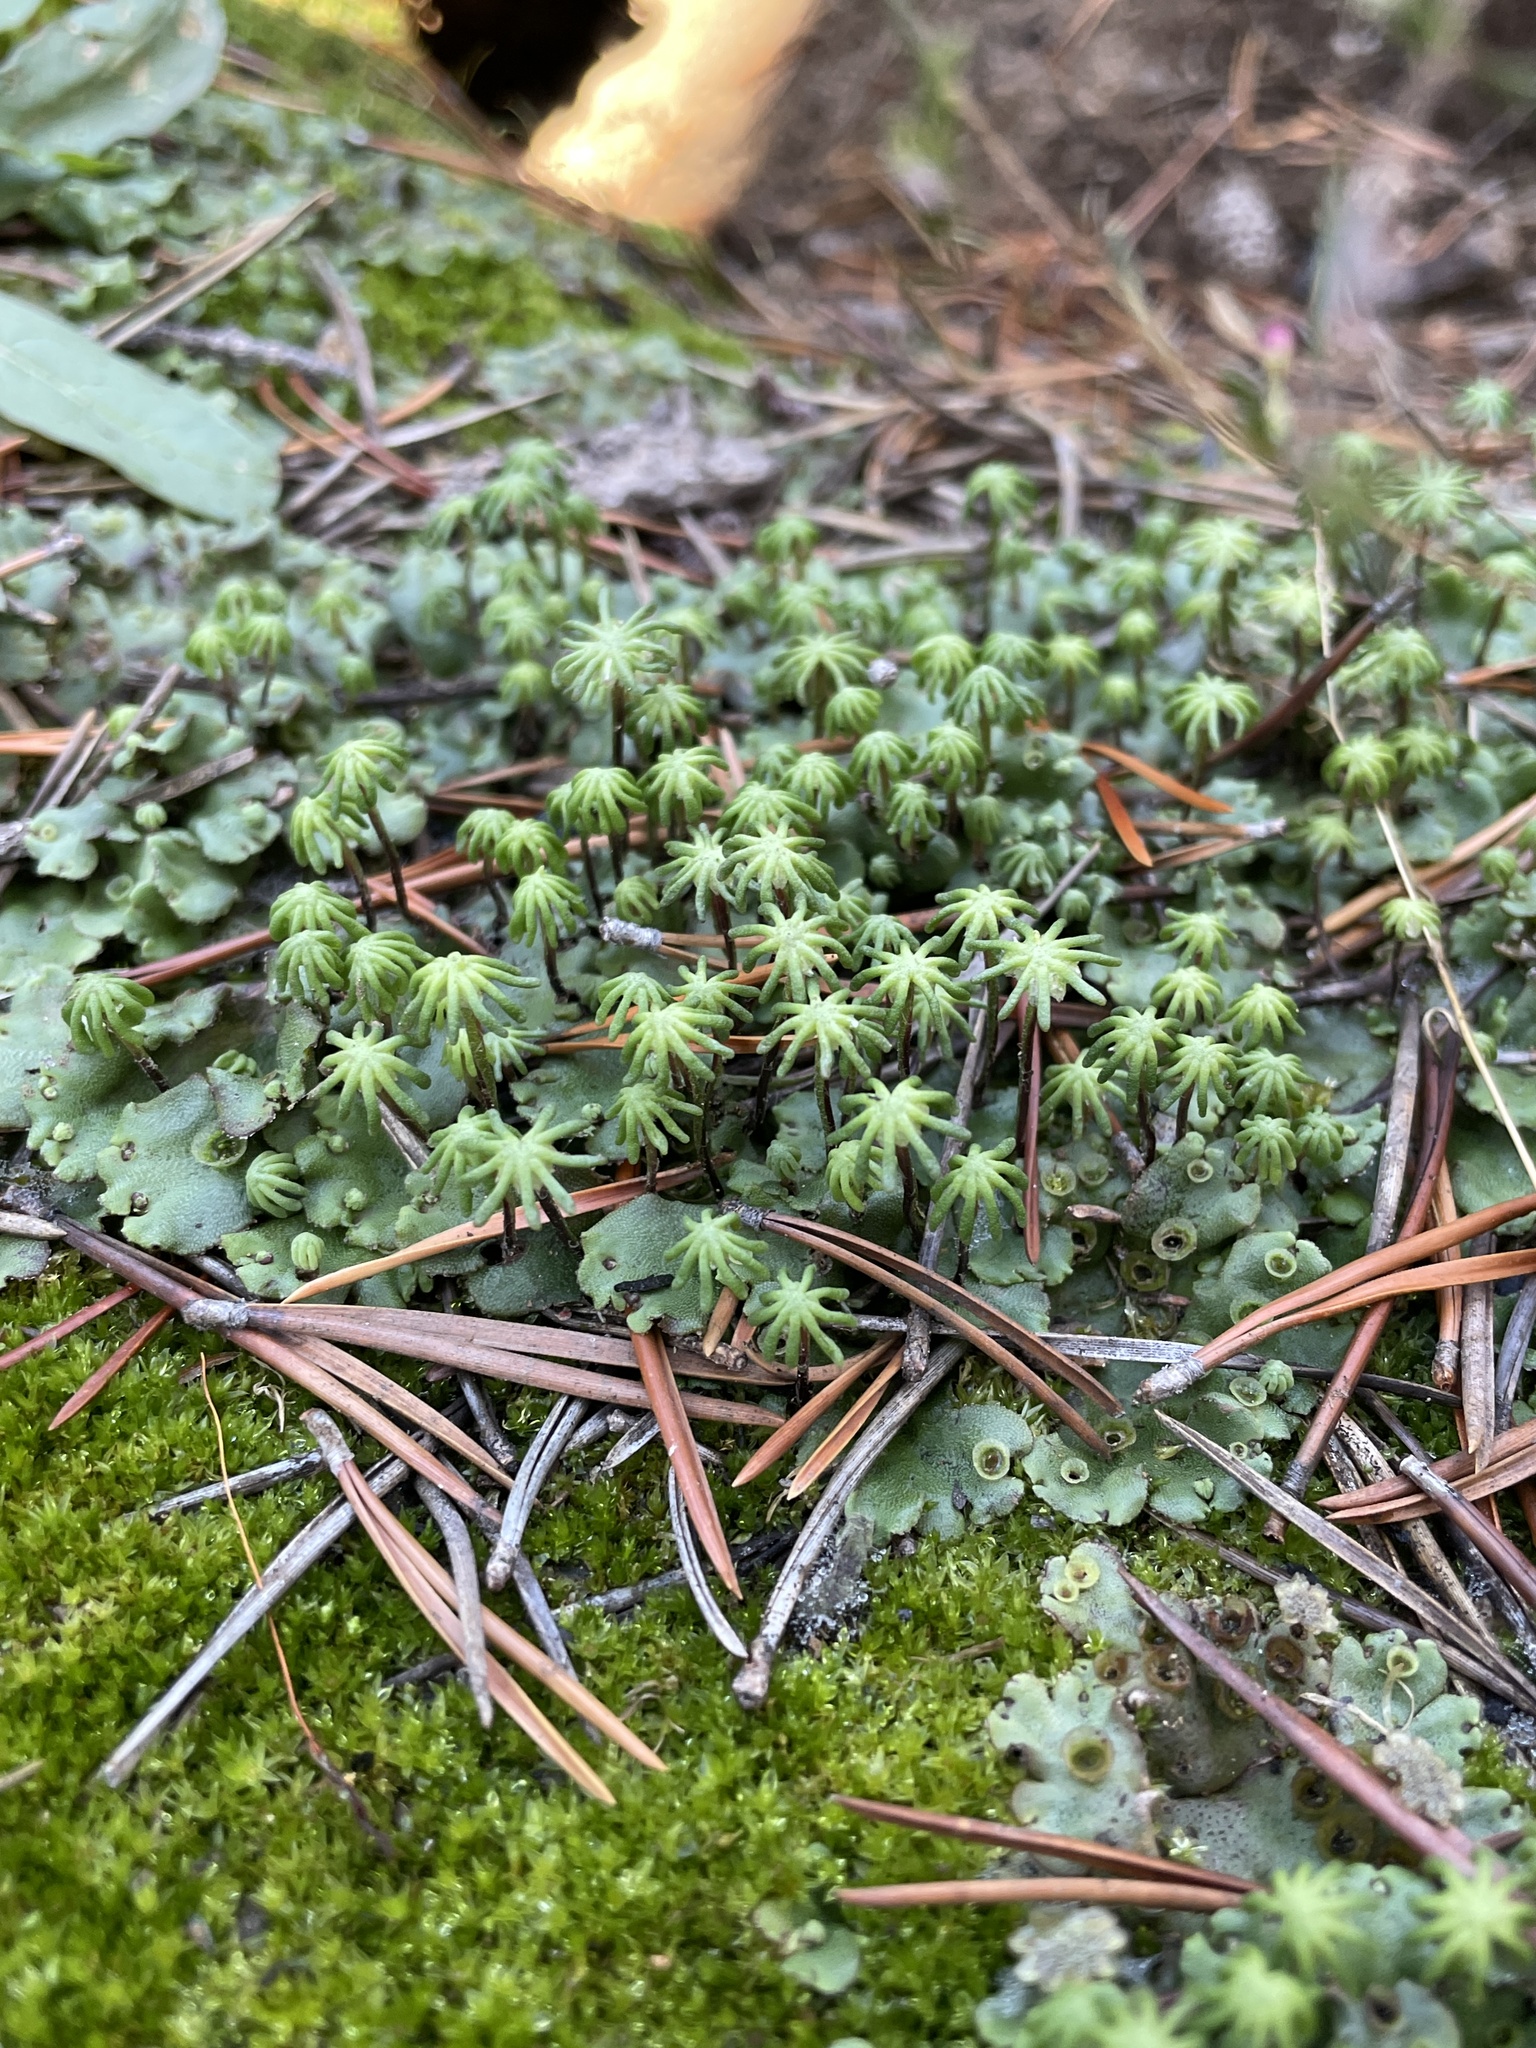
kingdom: Plantae
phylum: Marchantiophyta
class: Marchantiopsida
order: Marchantiales
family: Marchantiaceae
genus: Marchantia
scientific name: Marchantia polymorpha
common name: Common liverwort
